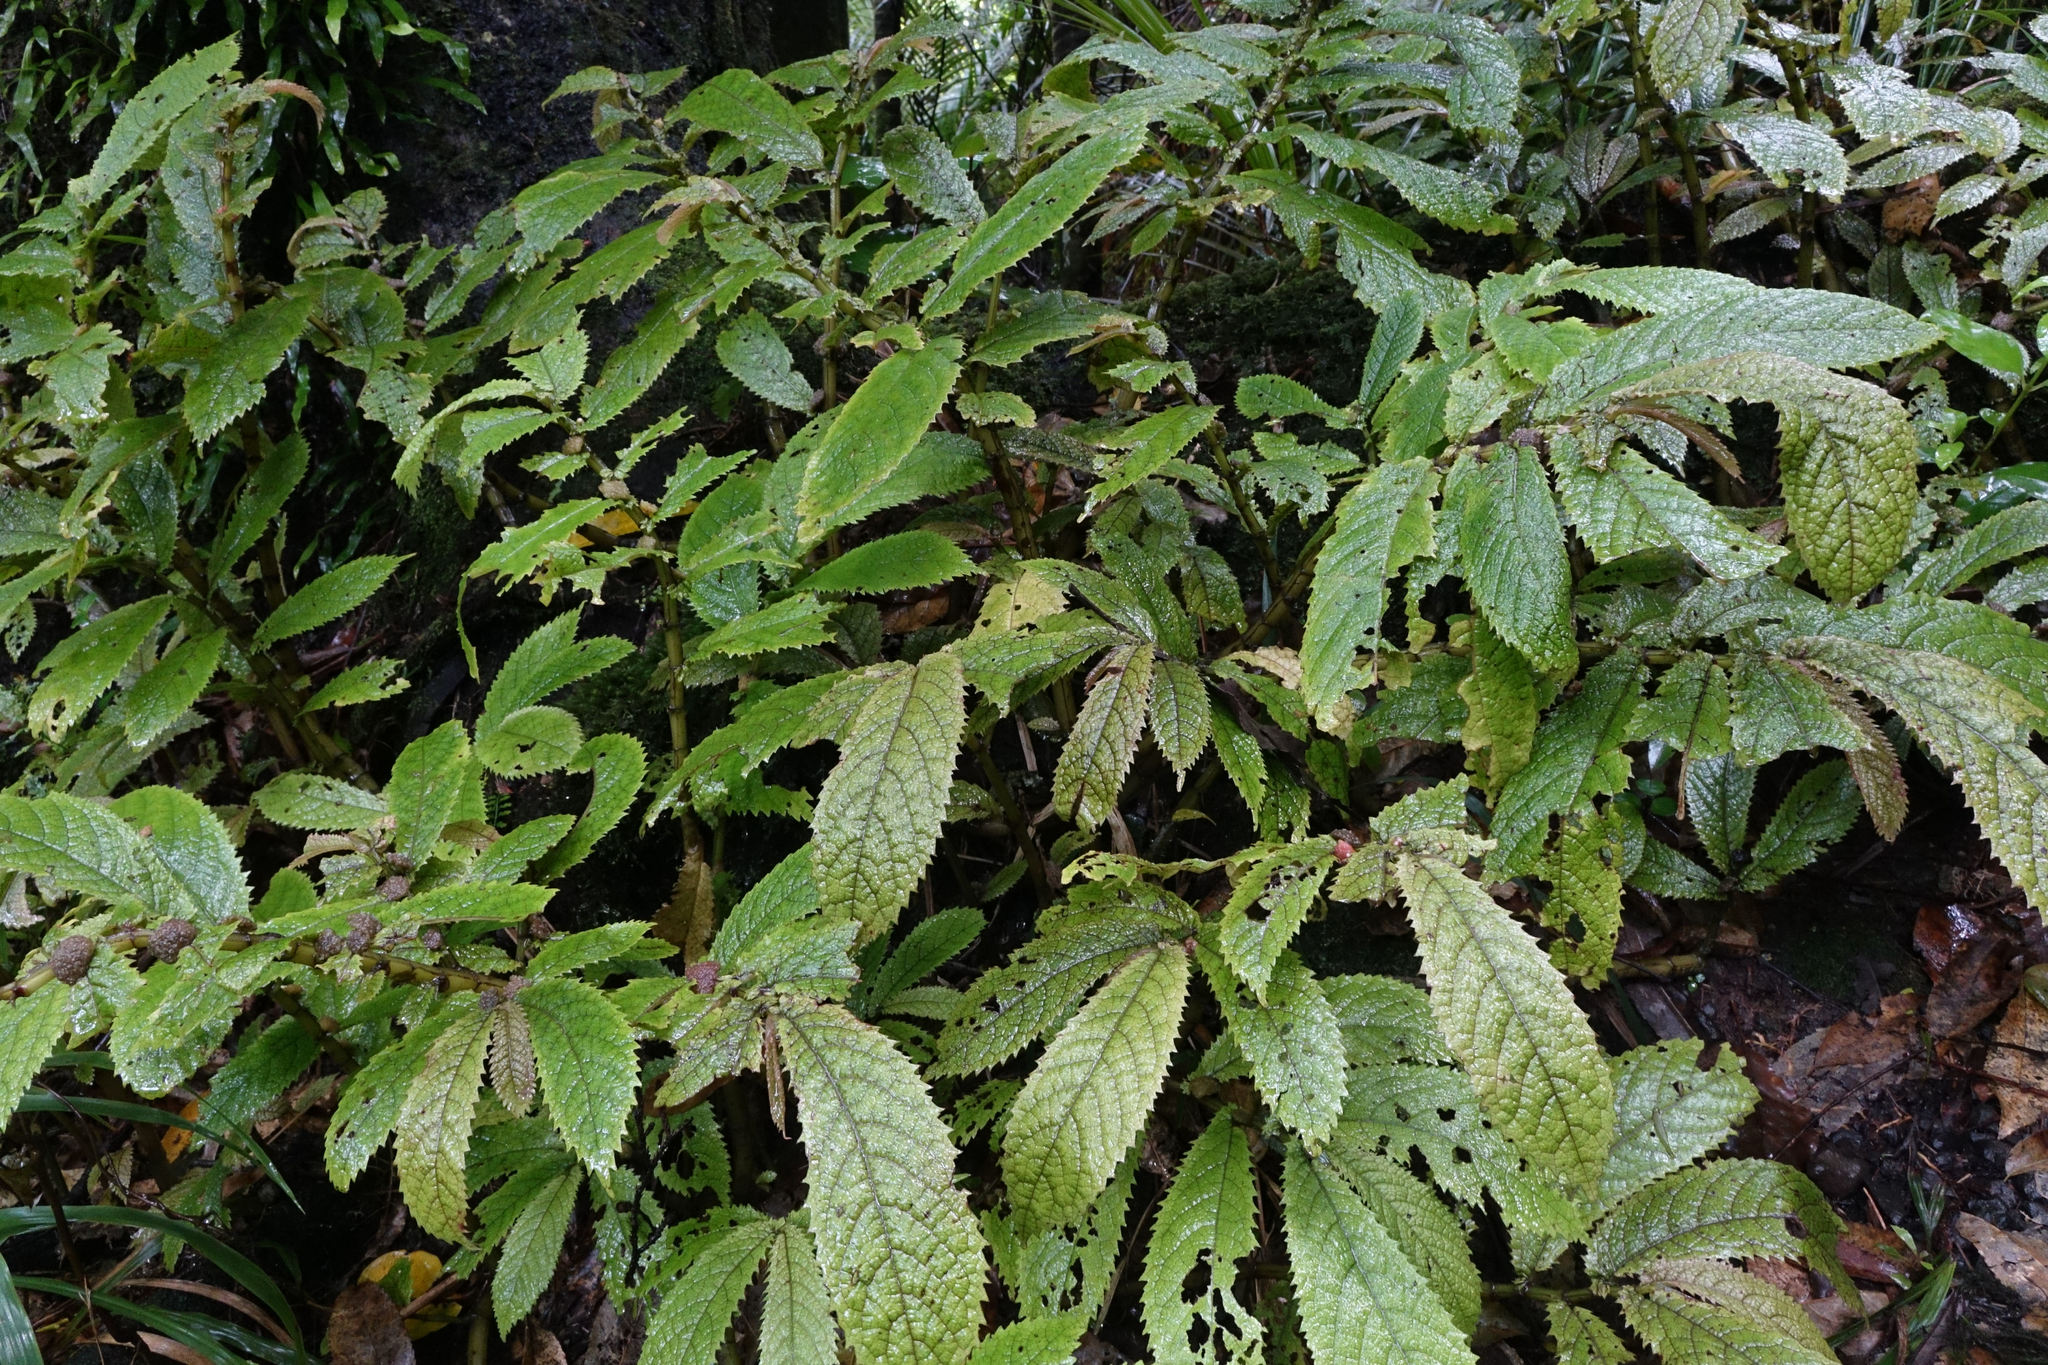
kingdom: Plantae
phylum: Tracheophyta
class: Magnoliopsida
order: Rosales
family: Urticaceae
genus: Elatostema
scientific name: Elatostema rugosum
